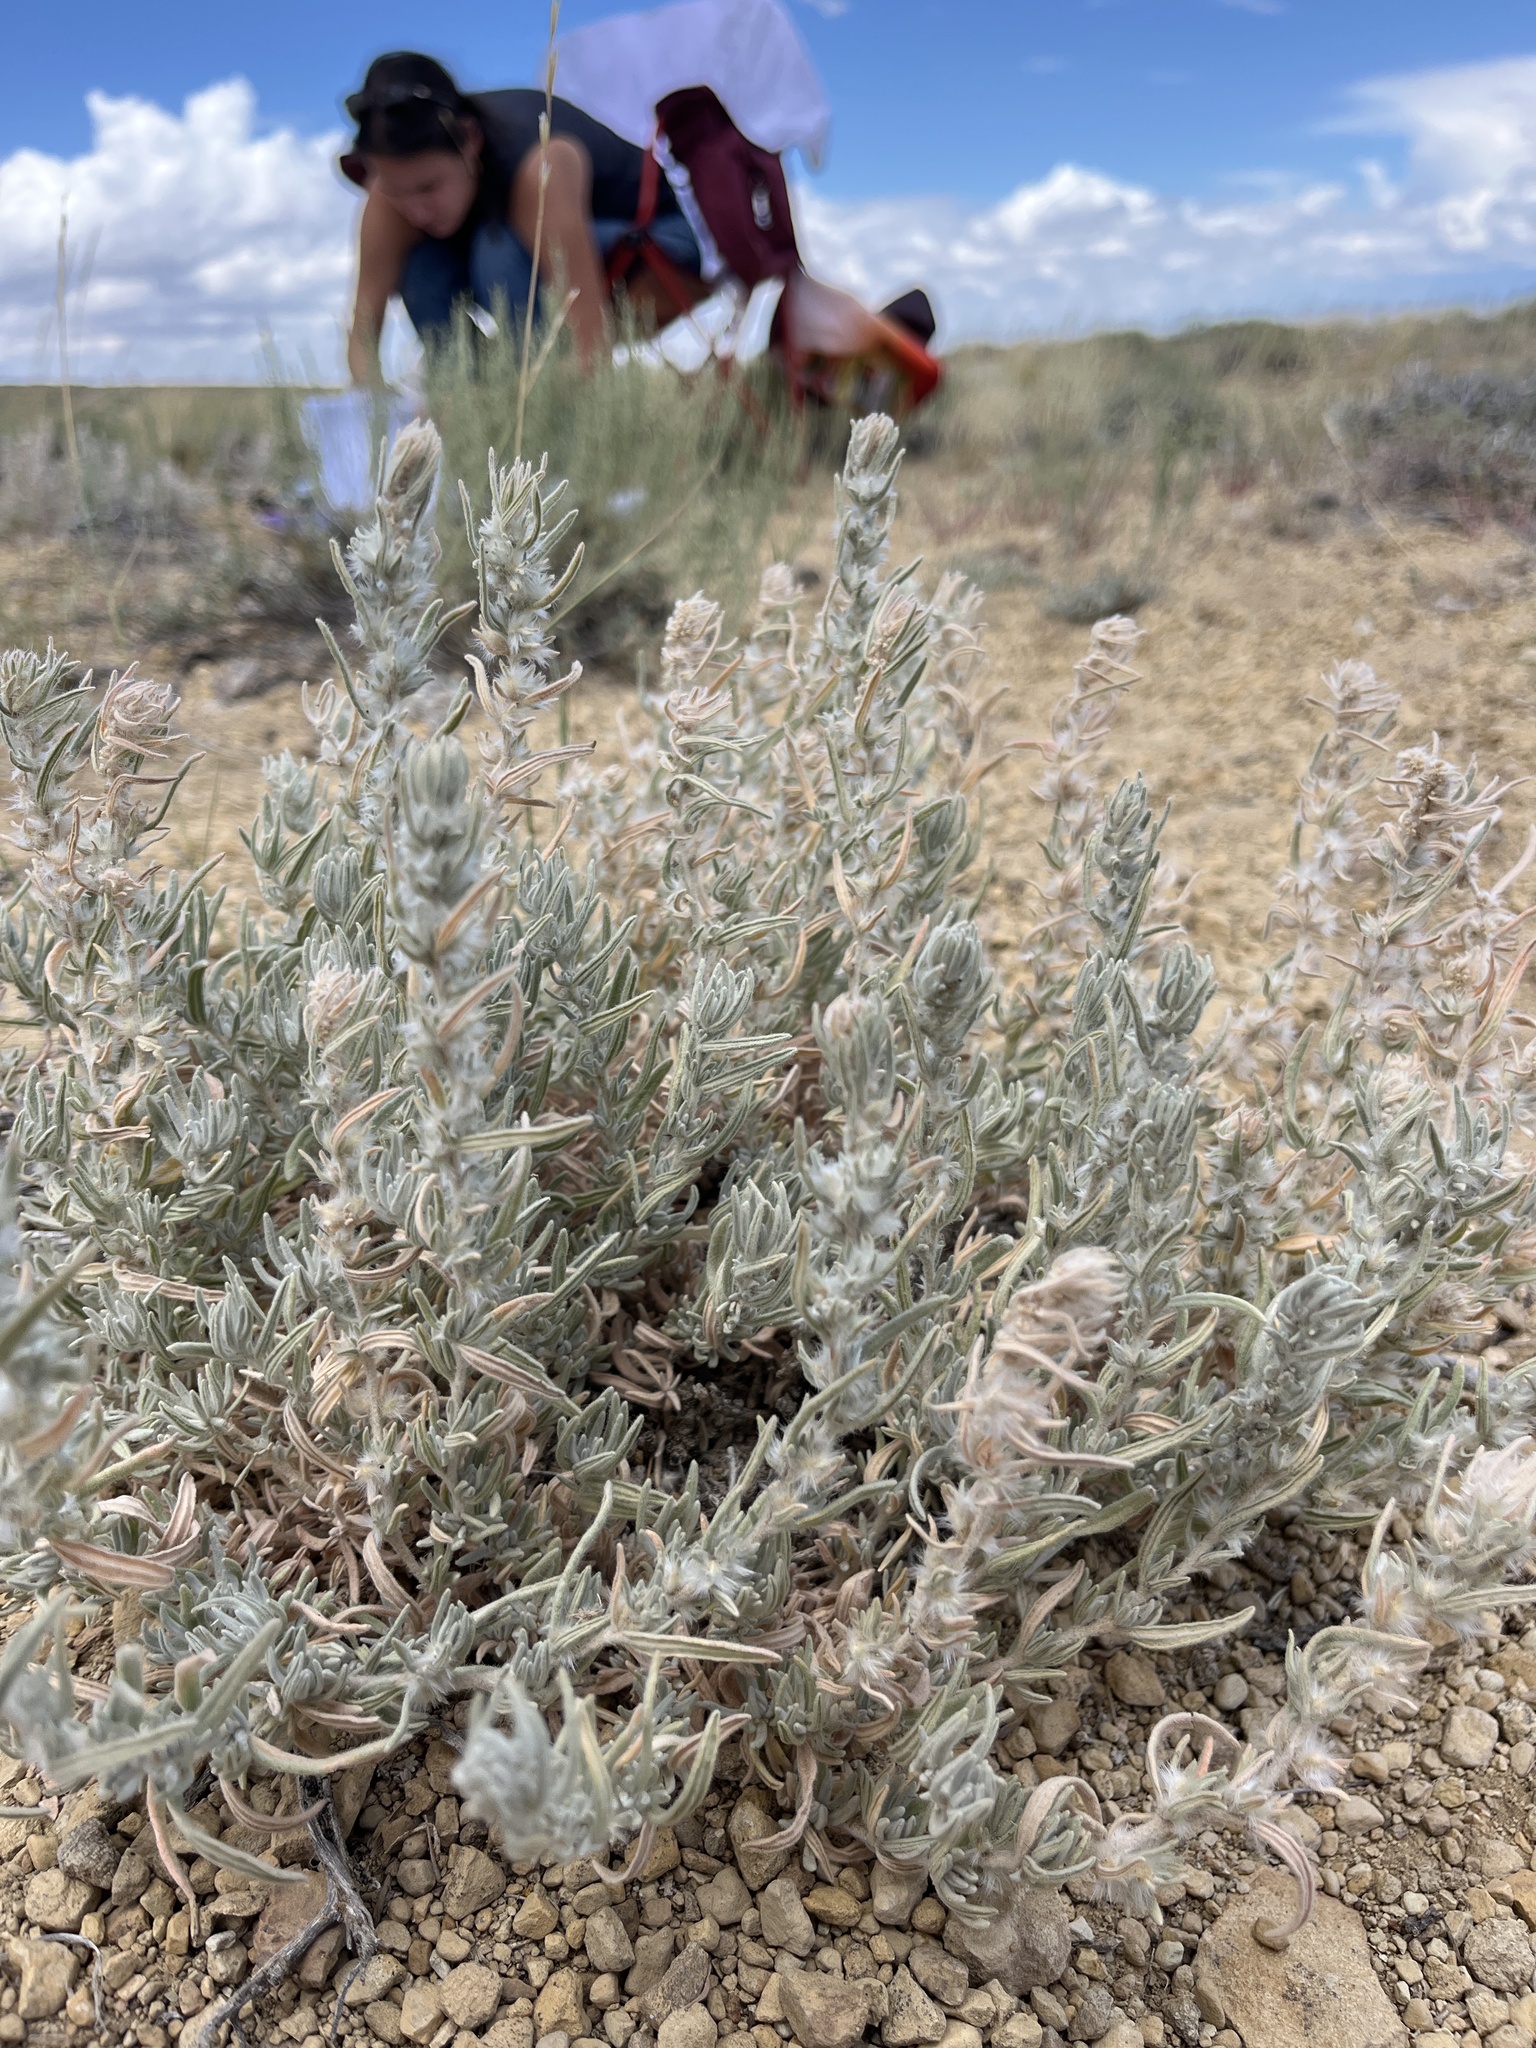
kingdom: Plantae
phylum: Tracheophyta
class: Magnoliopsida
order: Caryophyllales
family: Amaranthaceae
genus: Krascheninnikovia
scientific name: Krascheninnikovia lanata
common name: Winterfat
